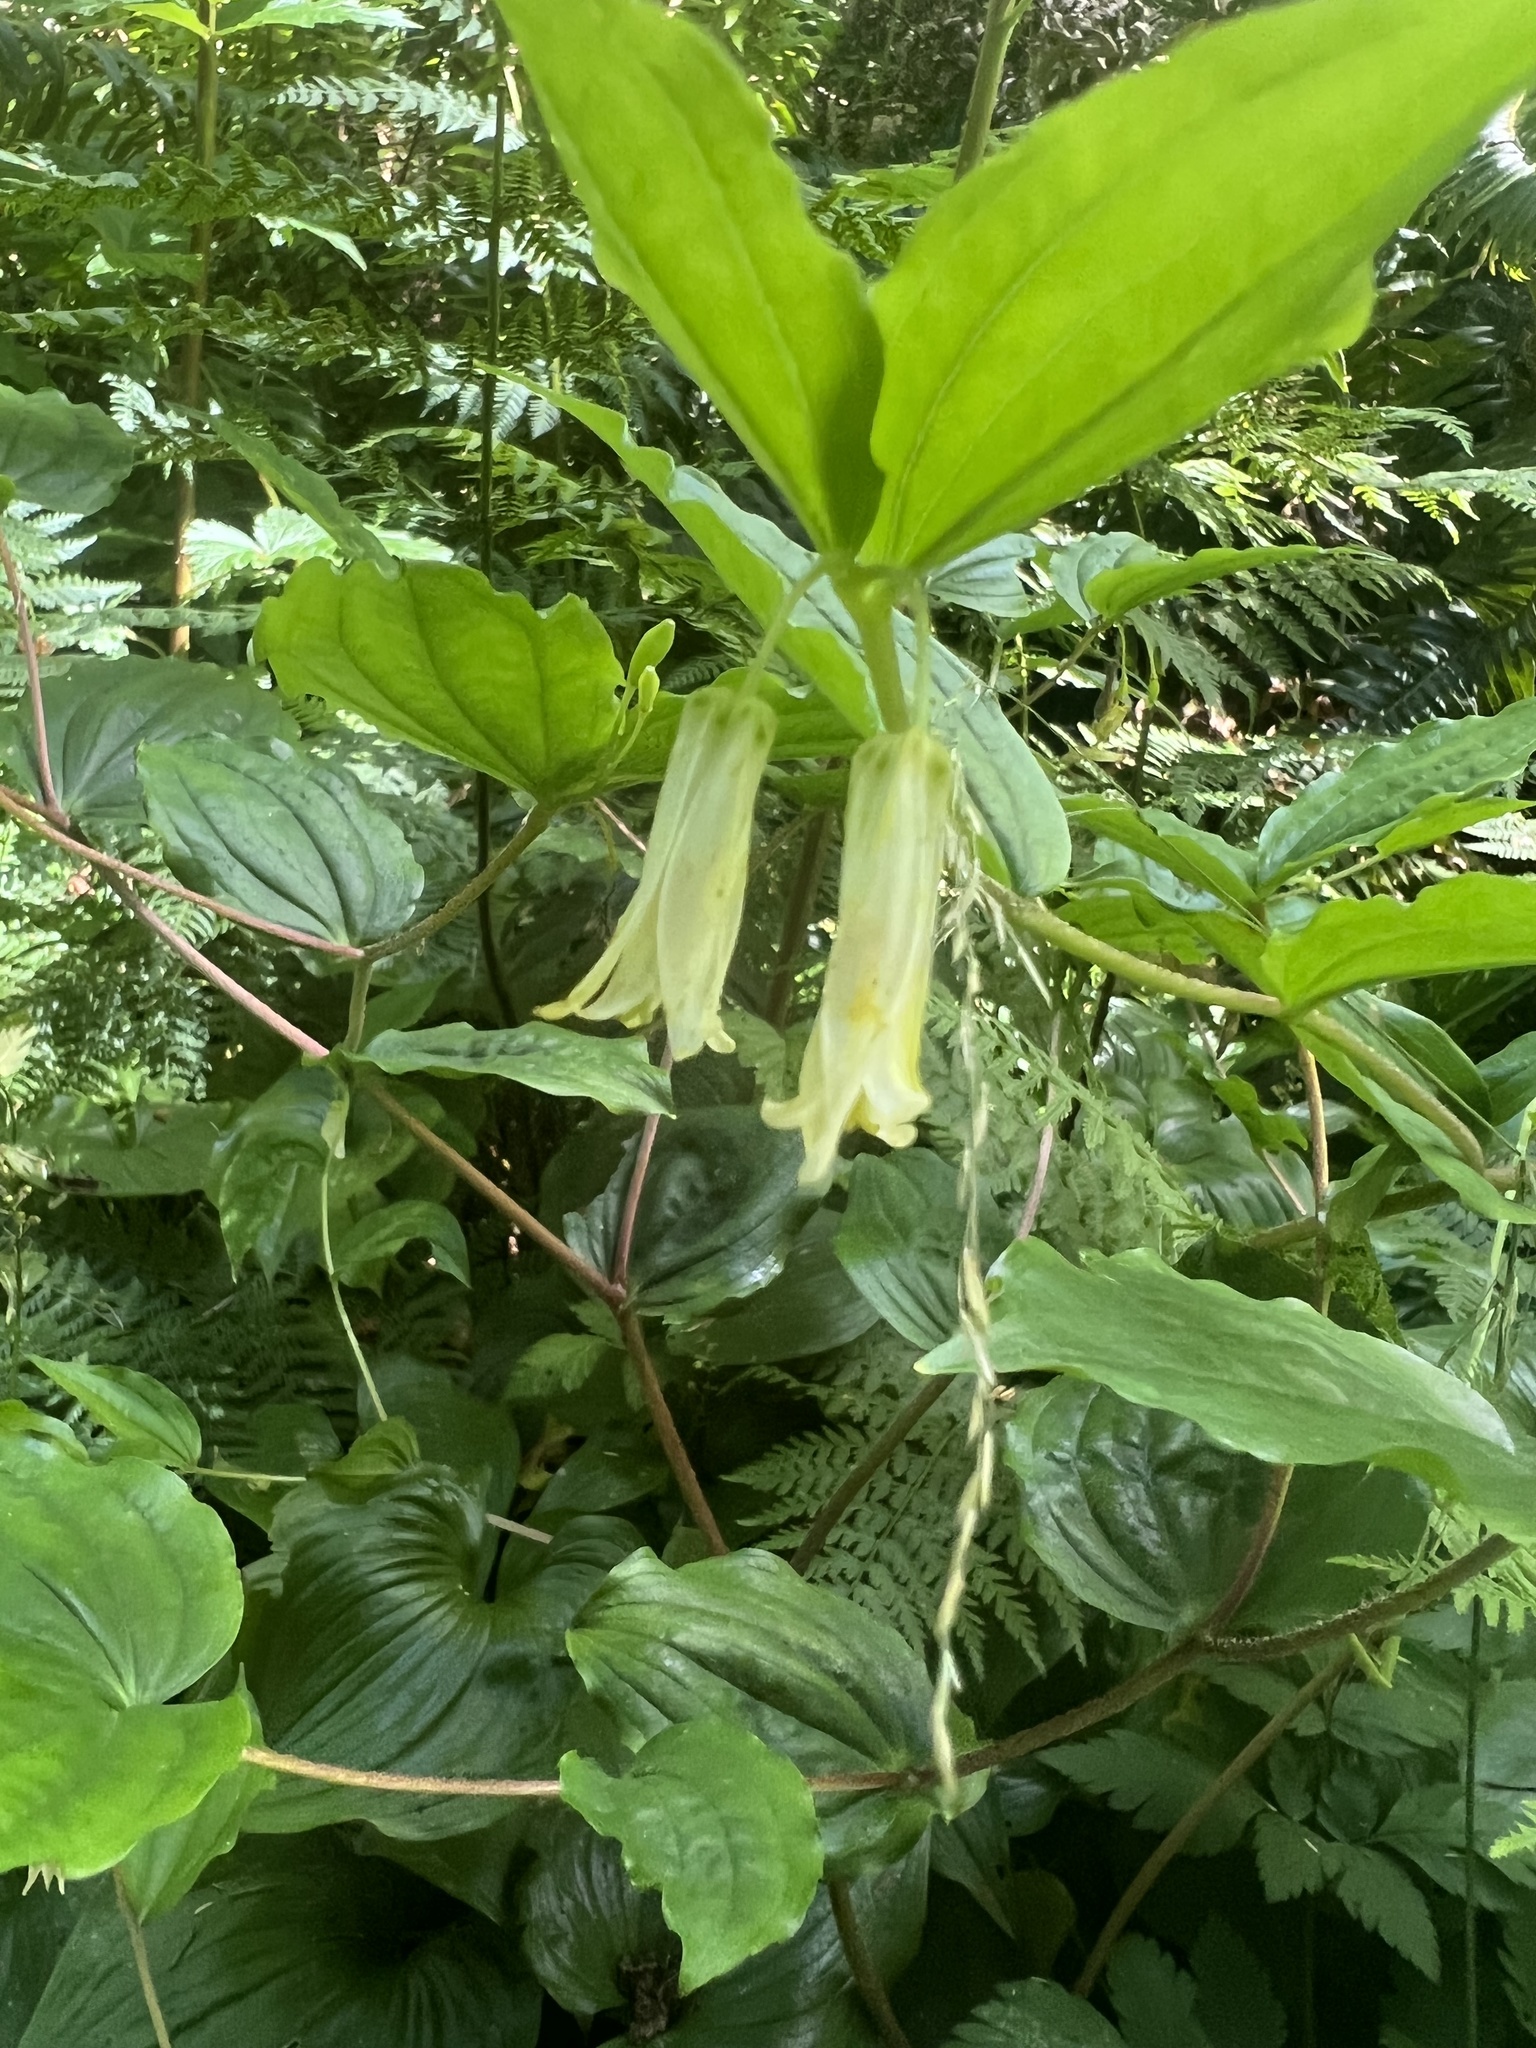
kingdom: Plantae
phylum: Tracheophyta
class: Liliopsida
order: Liliales
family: Liliaceae
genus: Prosartes
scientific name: Prosartes smithii
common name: Fairy-lantern
